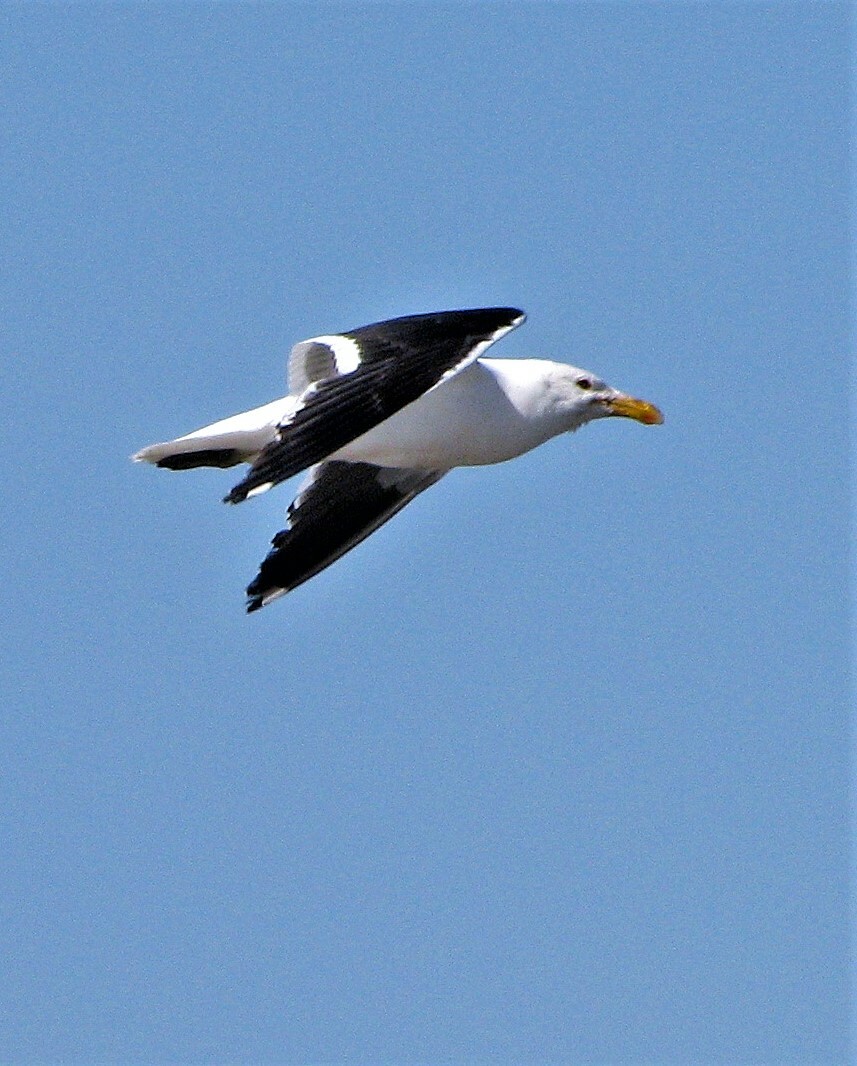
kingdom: Animalia
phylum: Chordata
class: Aves
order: Charadriiformes
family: Laridae
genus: Larus
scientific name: Larus dominicanus
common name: Kelp gull
